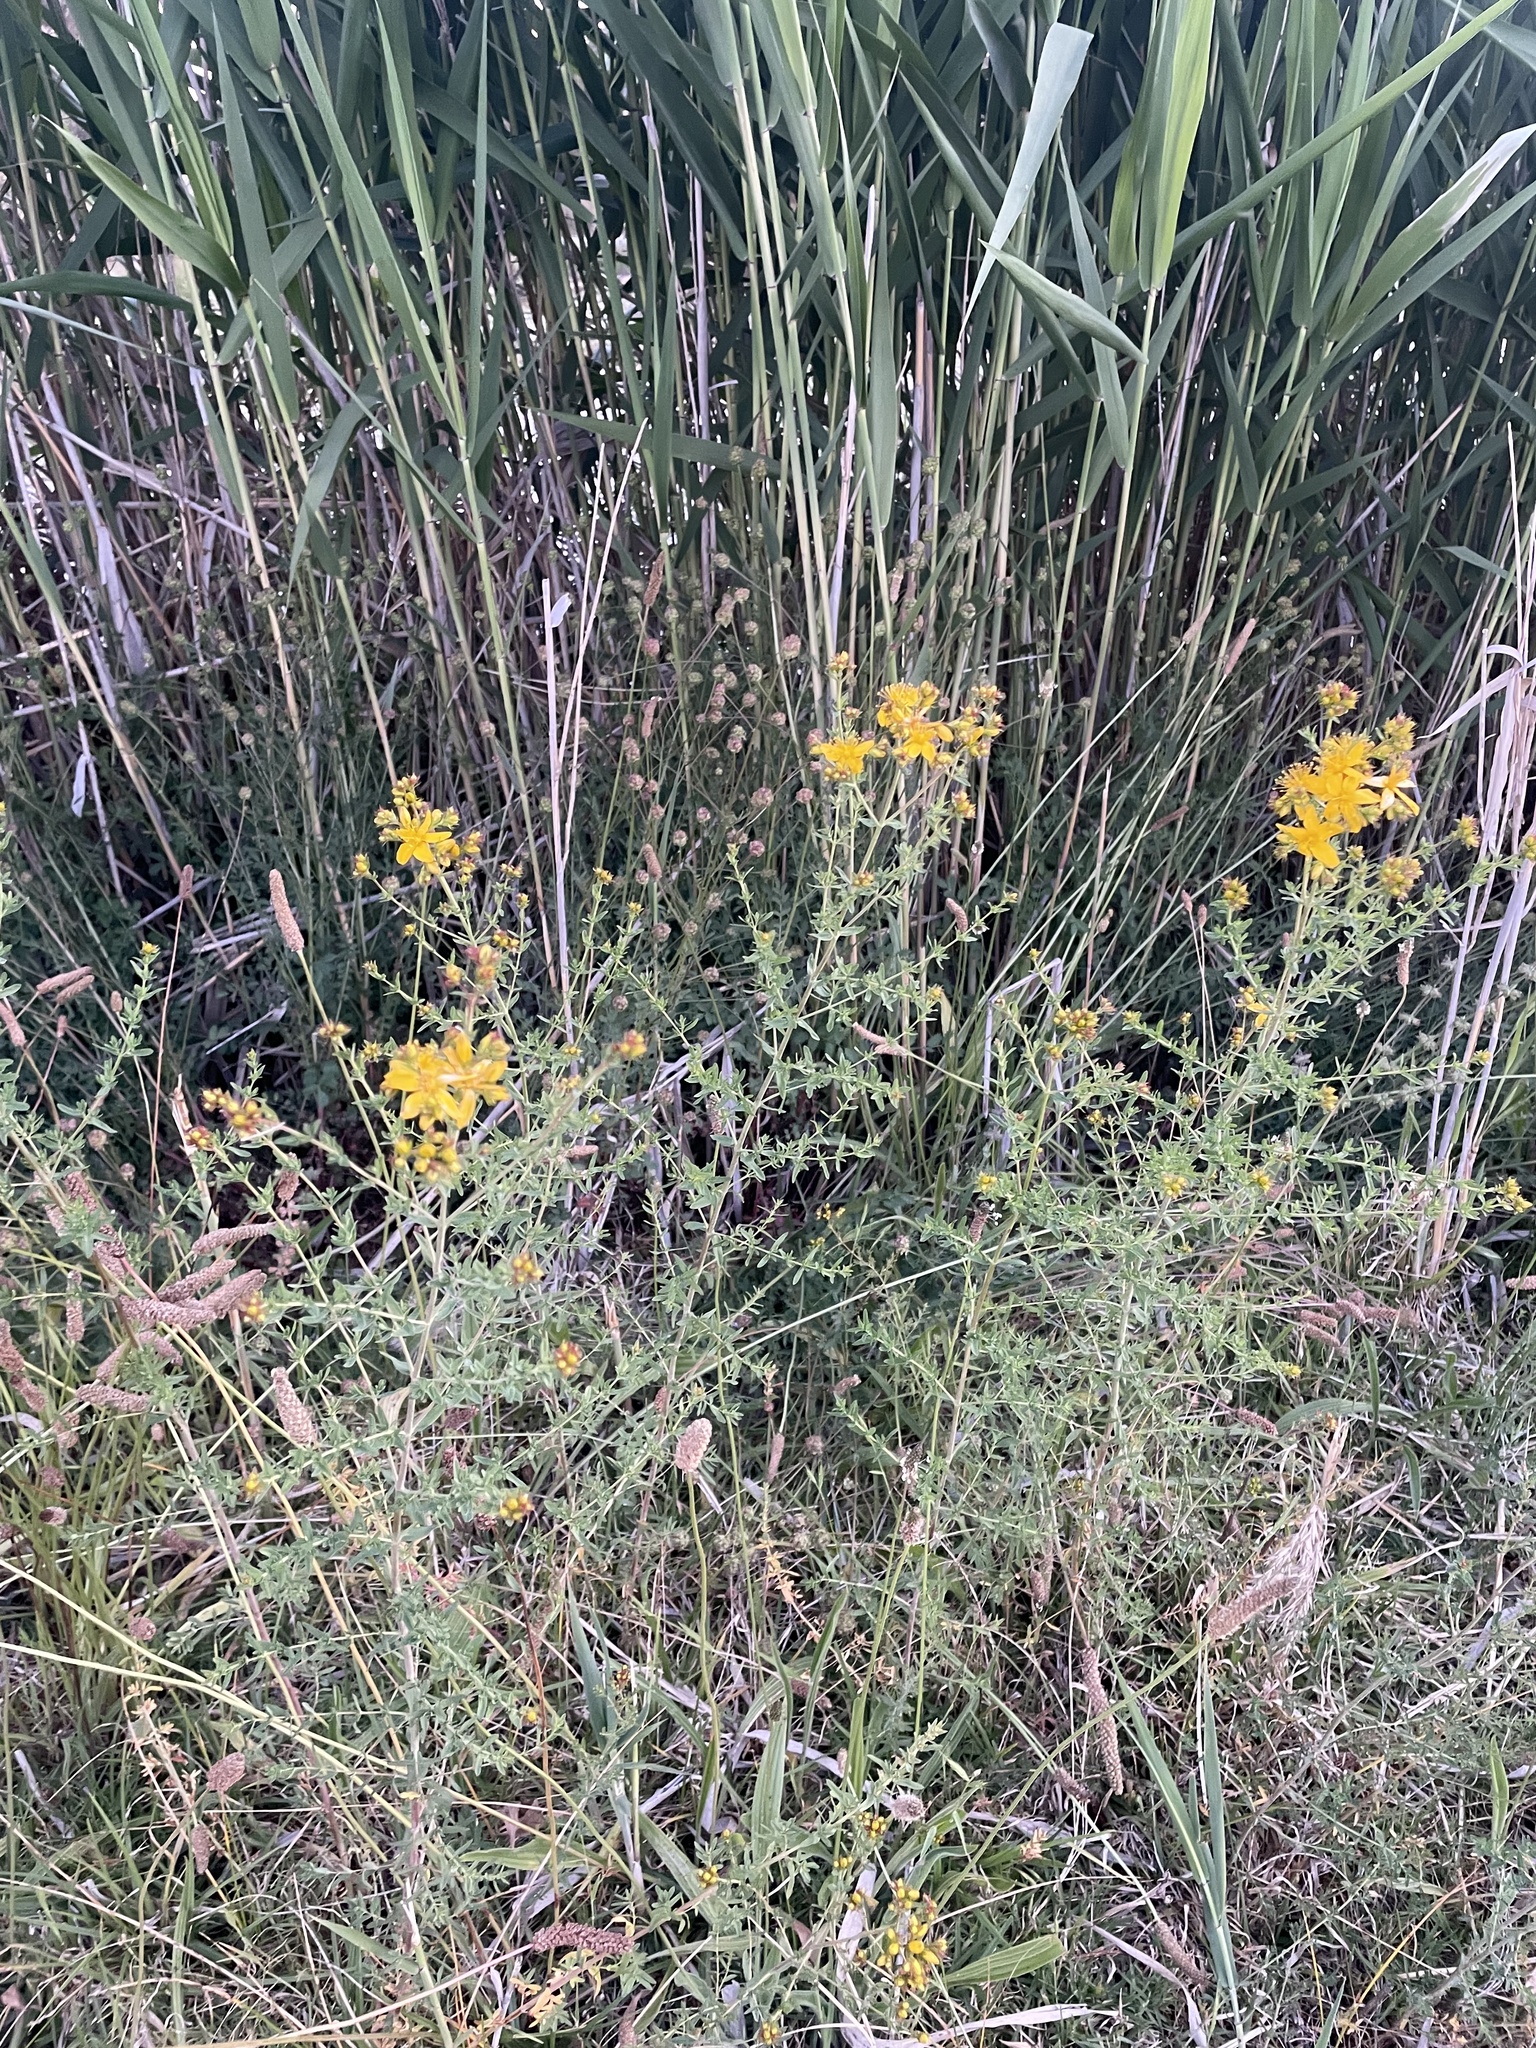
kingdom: Plantae
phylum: Tracheophyta
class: Magnoliopsida
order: Malpighiales
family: Hypericaceae
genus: Hypericum
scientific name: Hypericum perforatum
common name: Common st. johnswort
